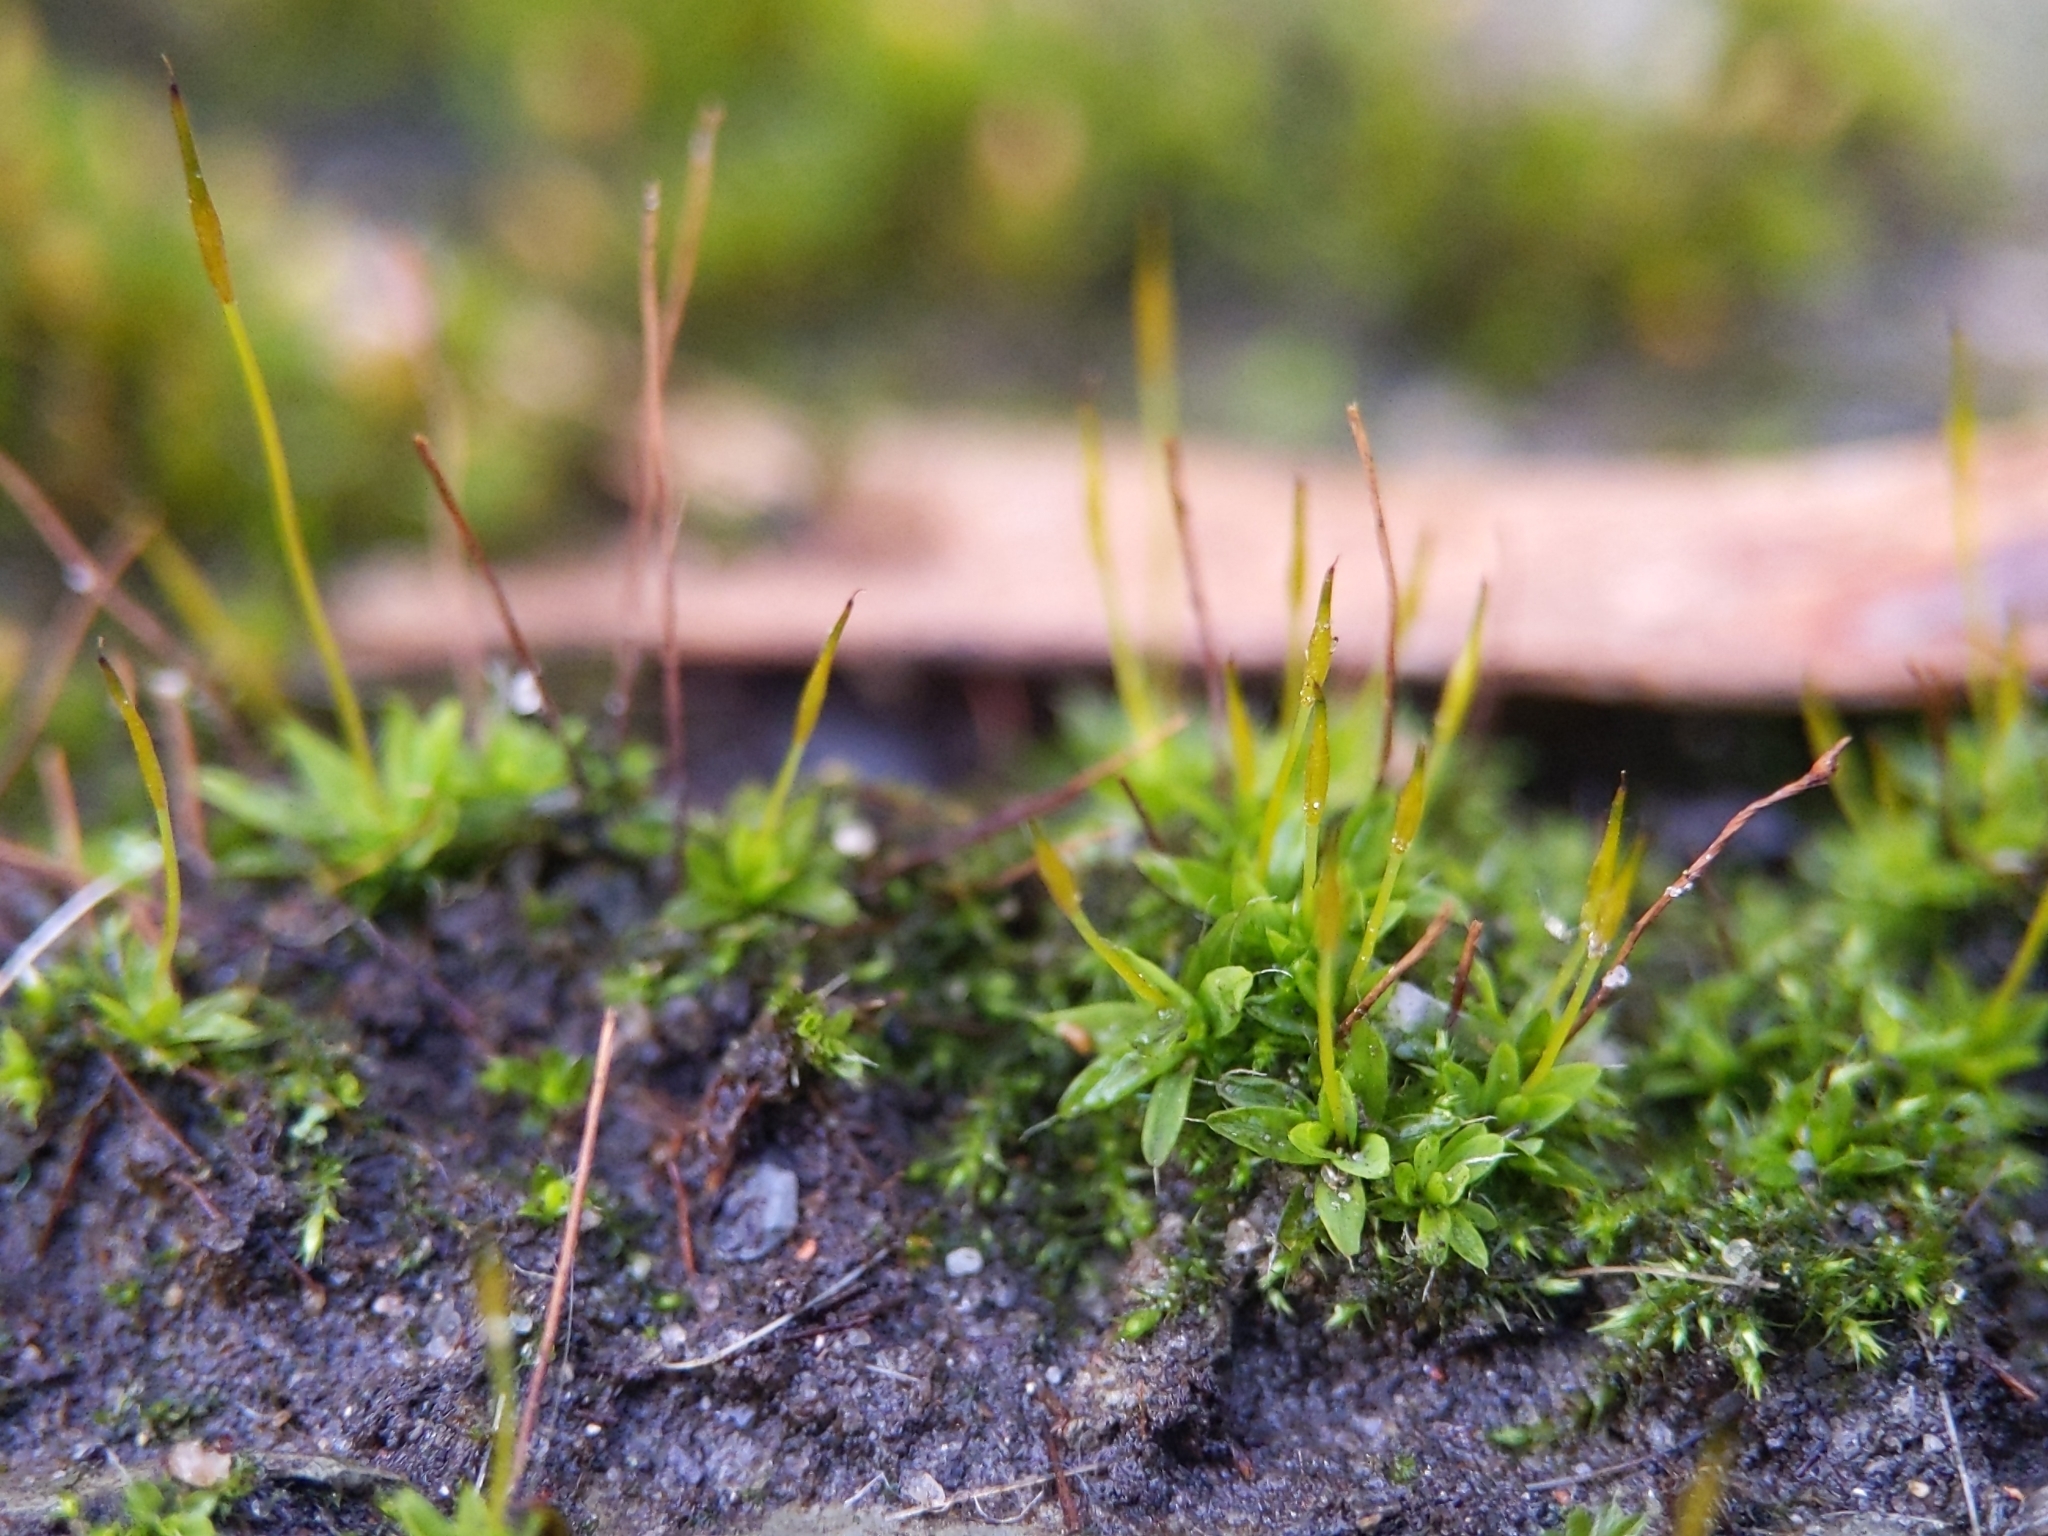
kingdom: Plantae
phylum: Bryophyta
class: Bryopsida
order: Pottiales
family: Pottiaceae
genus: Tortula
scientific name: Tortula muralis
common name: Wall screw-moss
